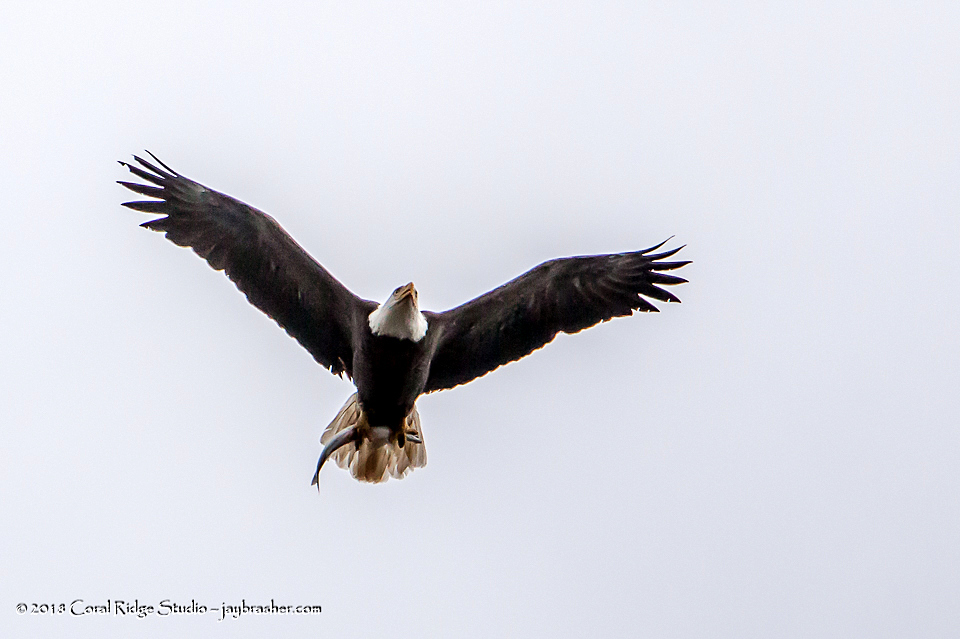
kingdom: Animalia
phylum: Chordata
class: Aves
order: Accipitriformes
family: Accipitridae
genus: Haliaeetus
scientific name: Haliaeetus leucocephalus
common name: Bald eagle
